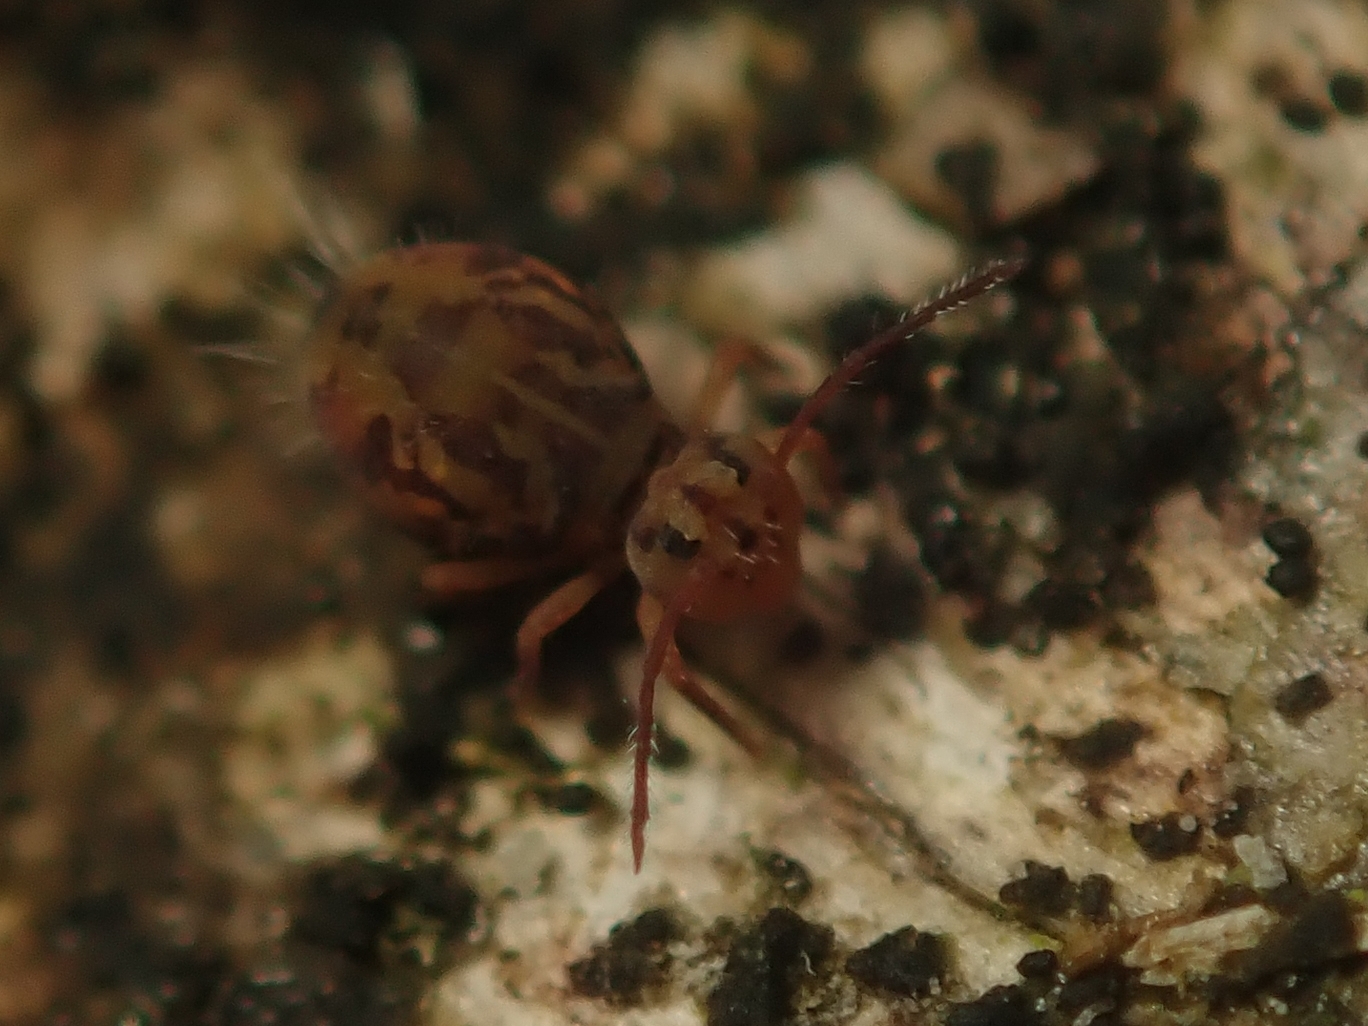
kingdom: Animalia
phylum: Arthropoda
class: Collembola
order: Symphypleona
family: Dicyrtomidae
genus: Dicyrtomina
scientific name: Dicyrtomina ornata
